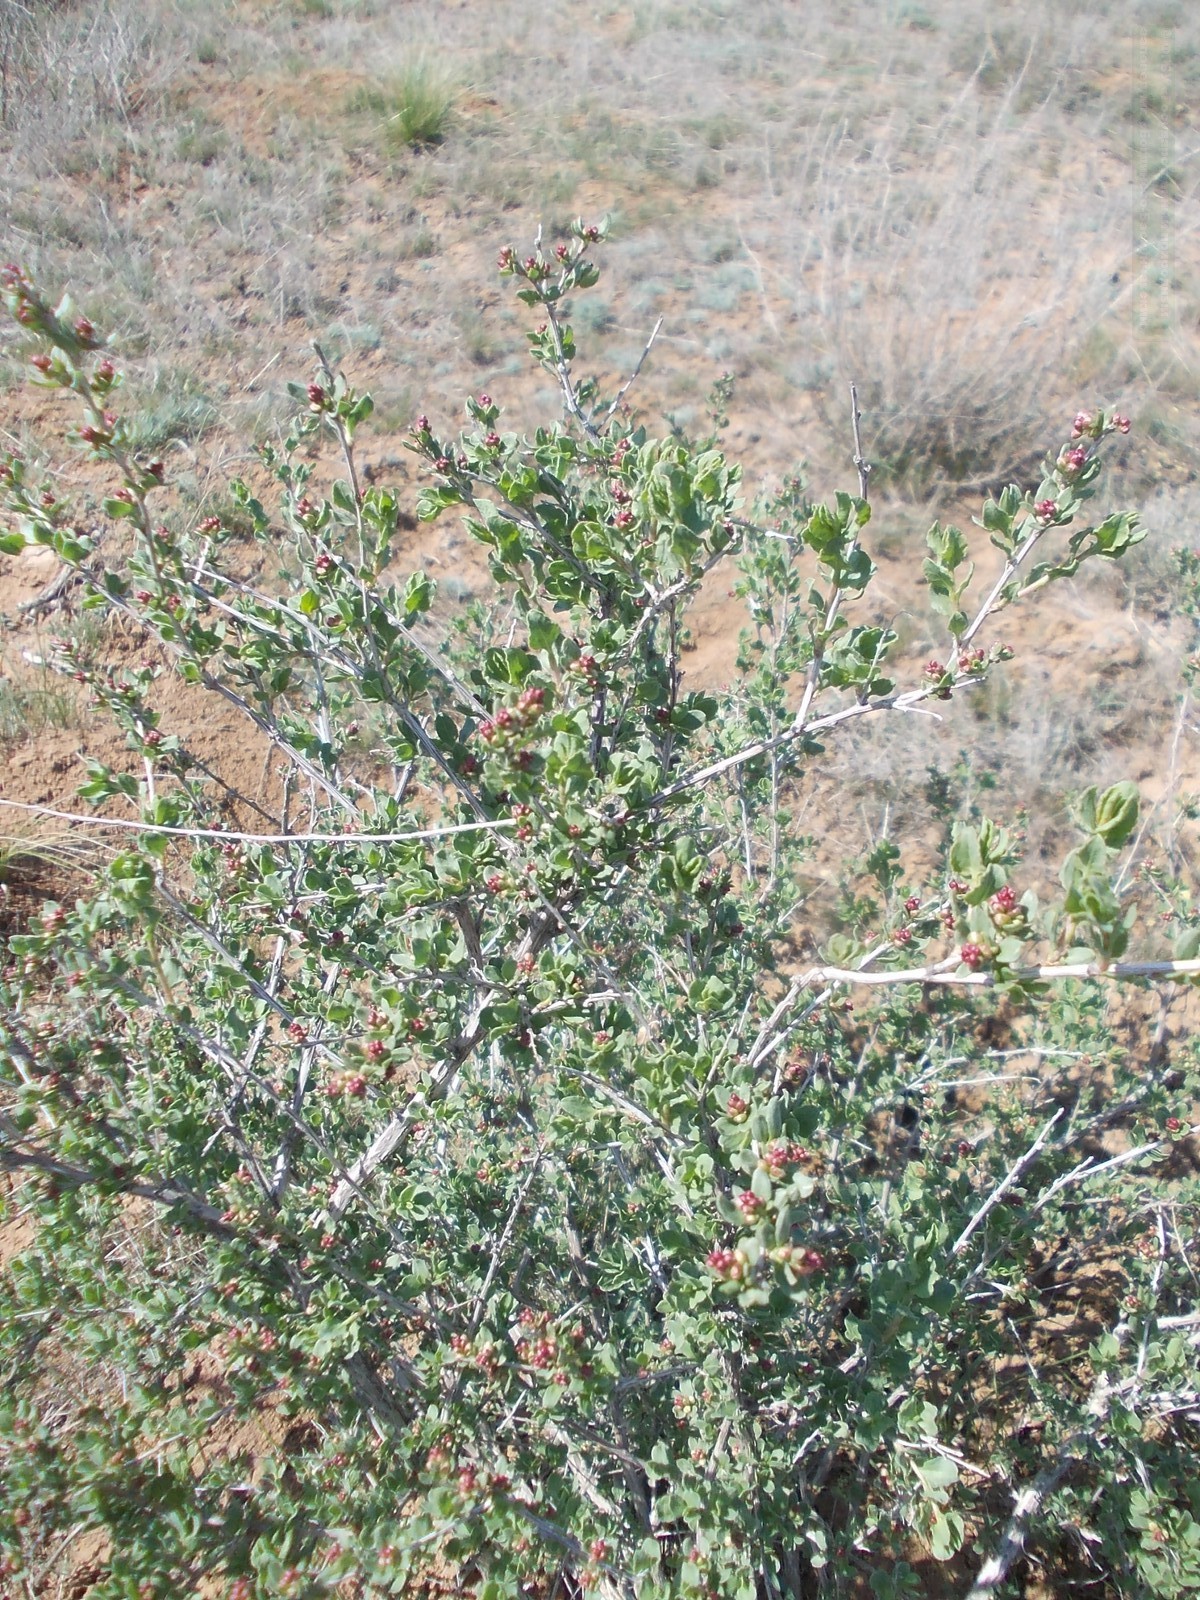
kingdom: Plantae
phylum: Tracheophyta
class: Magnoliopsida
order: Caryophyllales
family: Polygonaceae
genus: Atraphaxis
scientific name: Atraphaxis replicata
